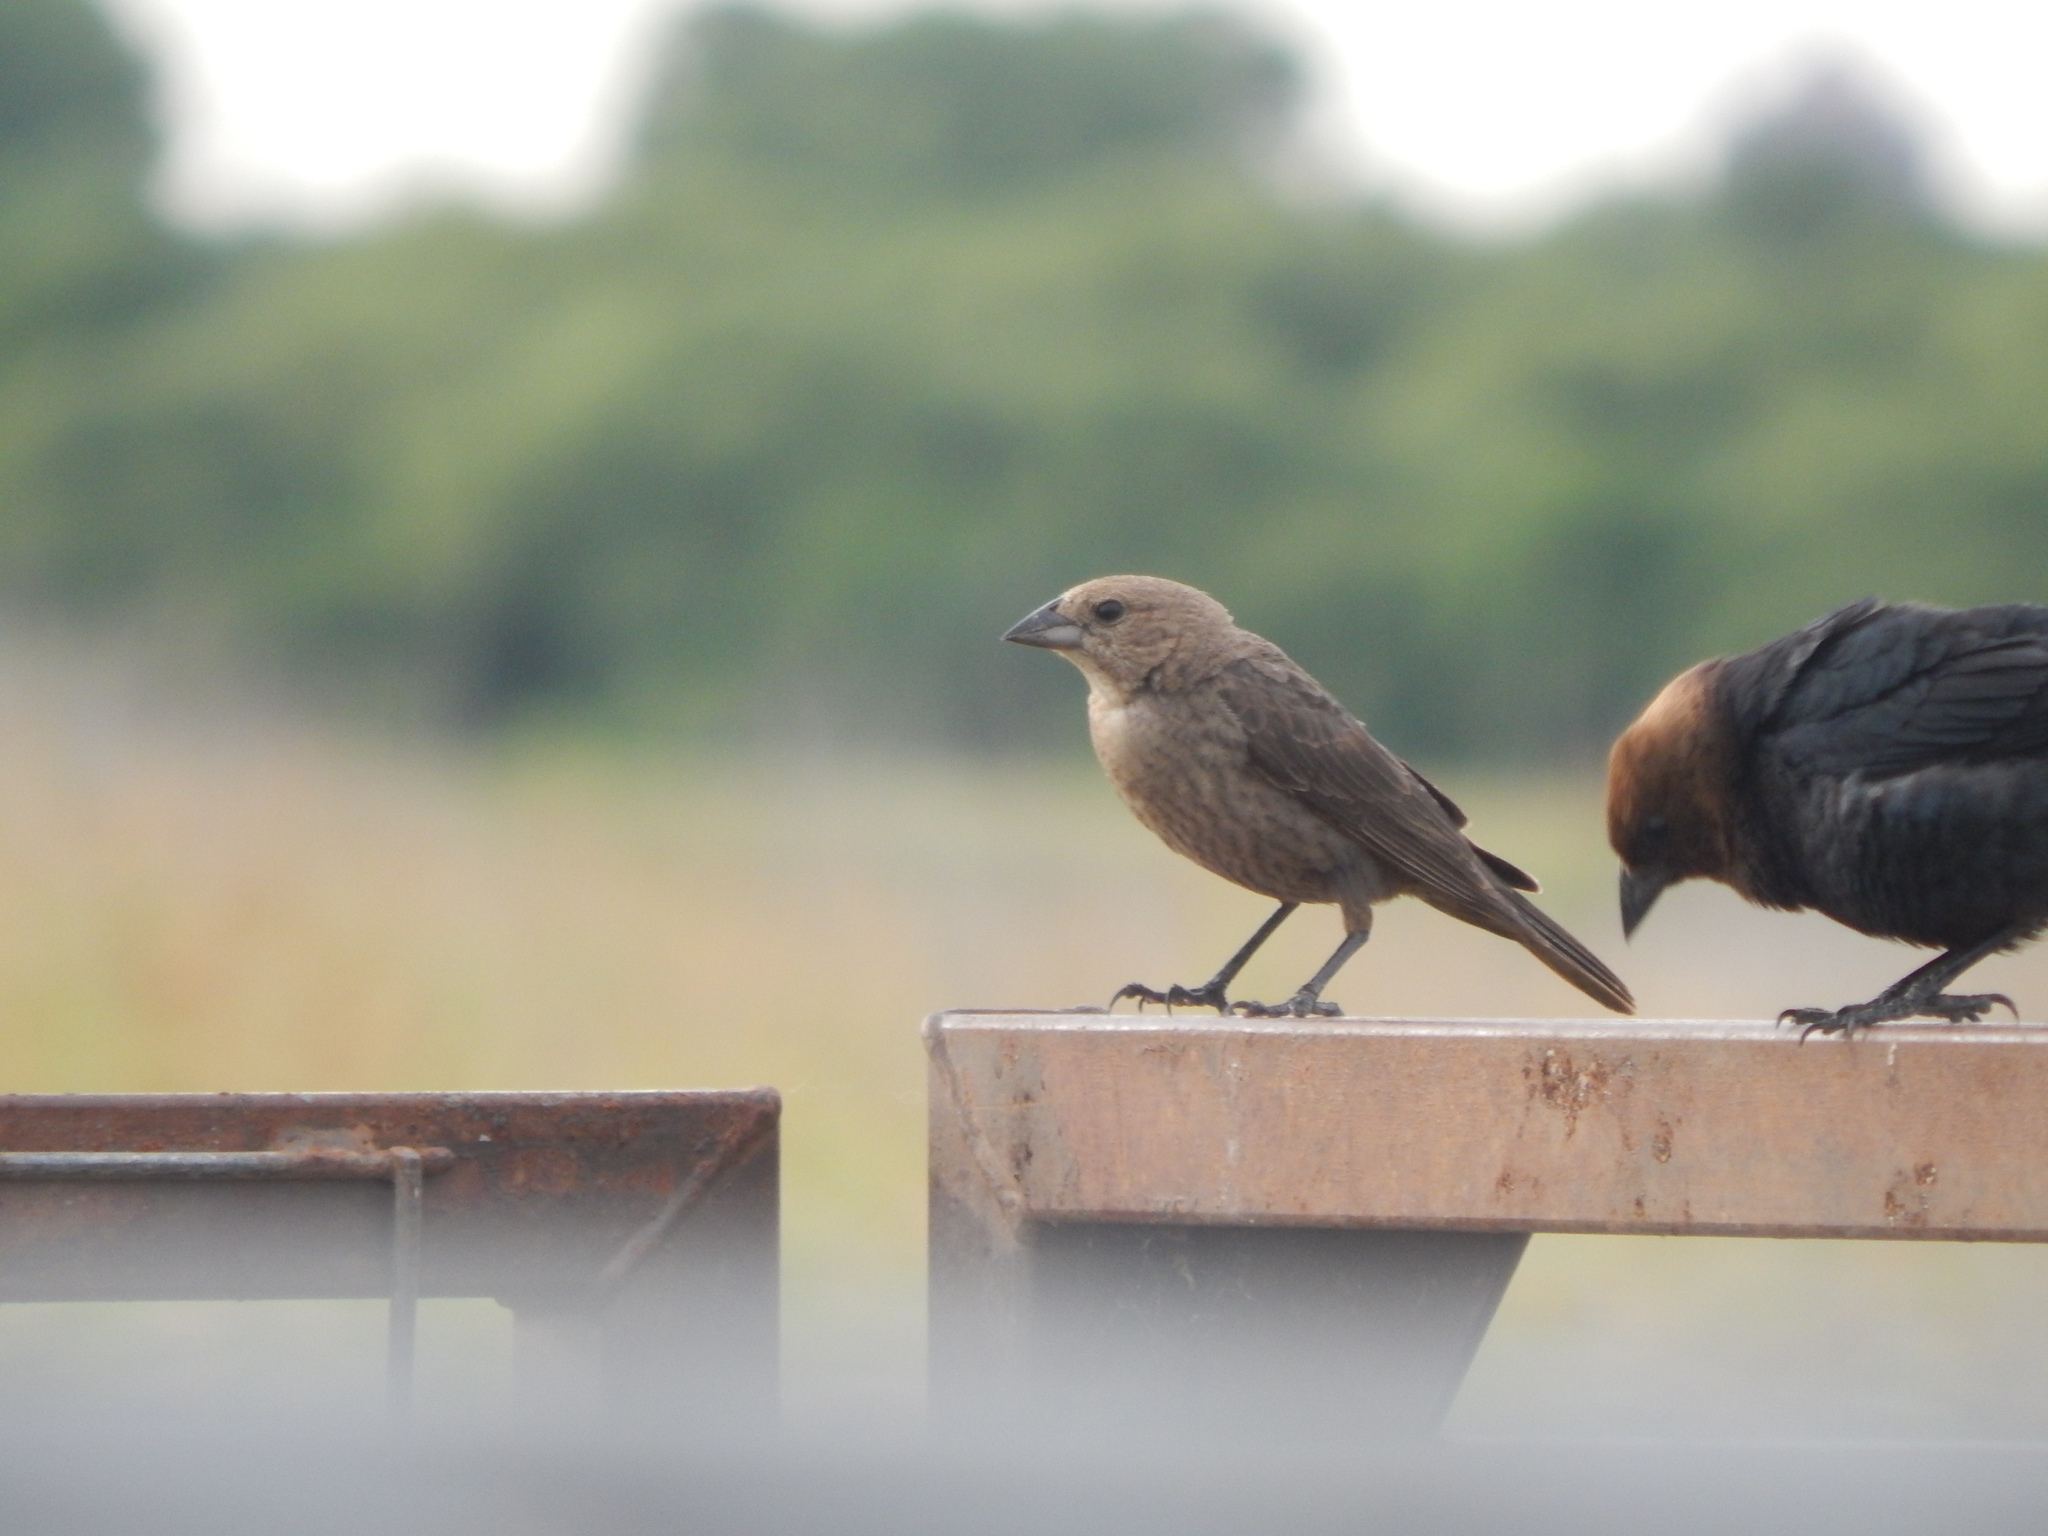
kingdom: Animalia
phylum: Chordata
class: Aves
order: Passeriformes
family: Icteridae
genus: Molothrus
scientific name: Molothrus ater
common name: Brown-headed cowbird
